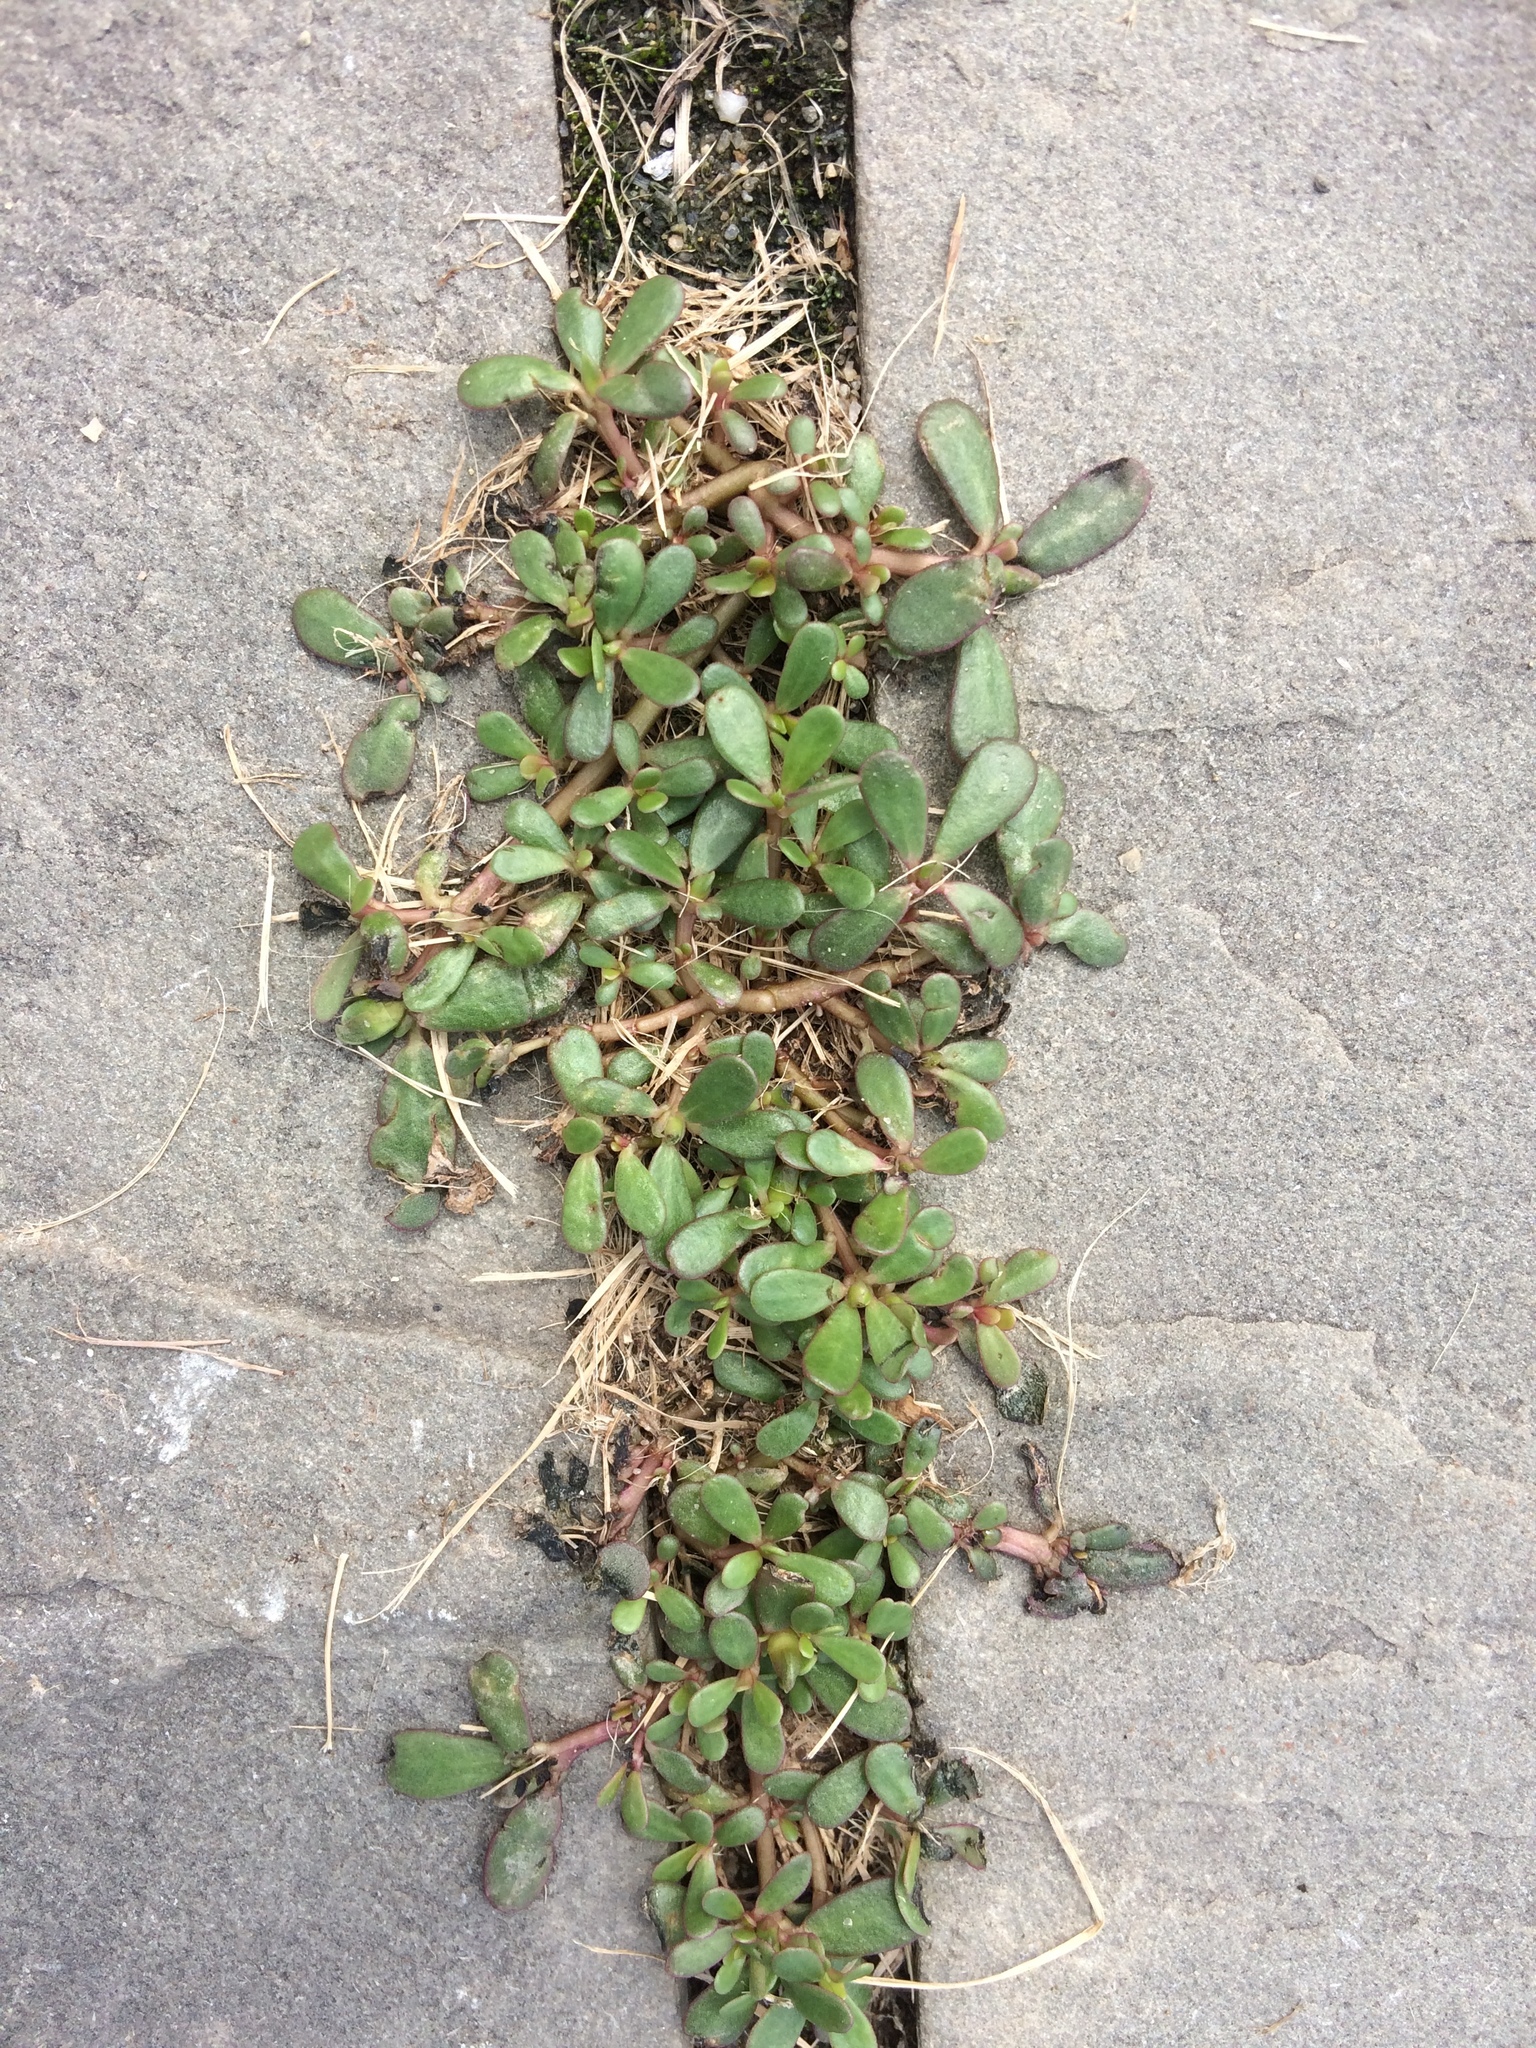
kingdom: Plantae
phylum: Tracheophyta
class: Magnoliopsida
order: Caryophyllales
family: Portulacaceae
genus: Portulaca
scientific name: Portulaca oleracea
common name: Common purslane
